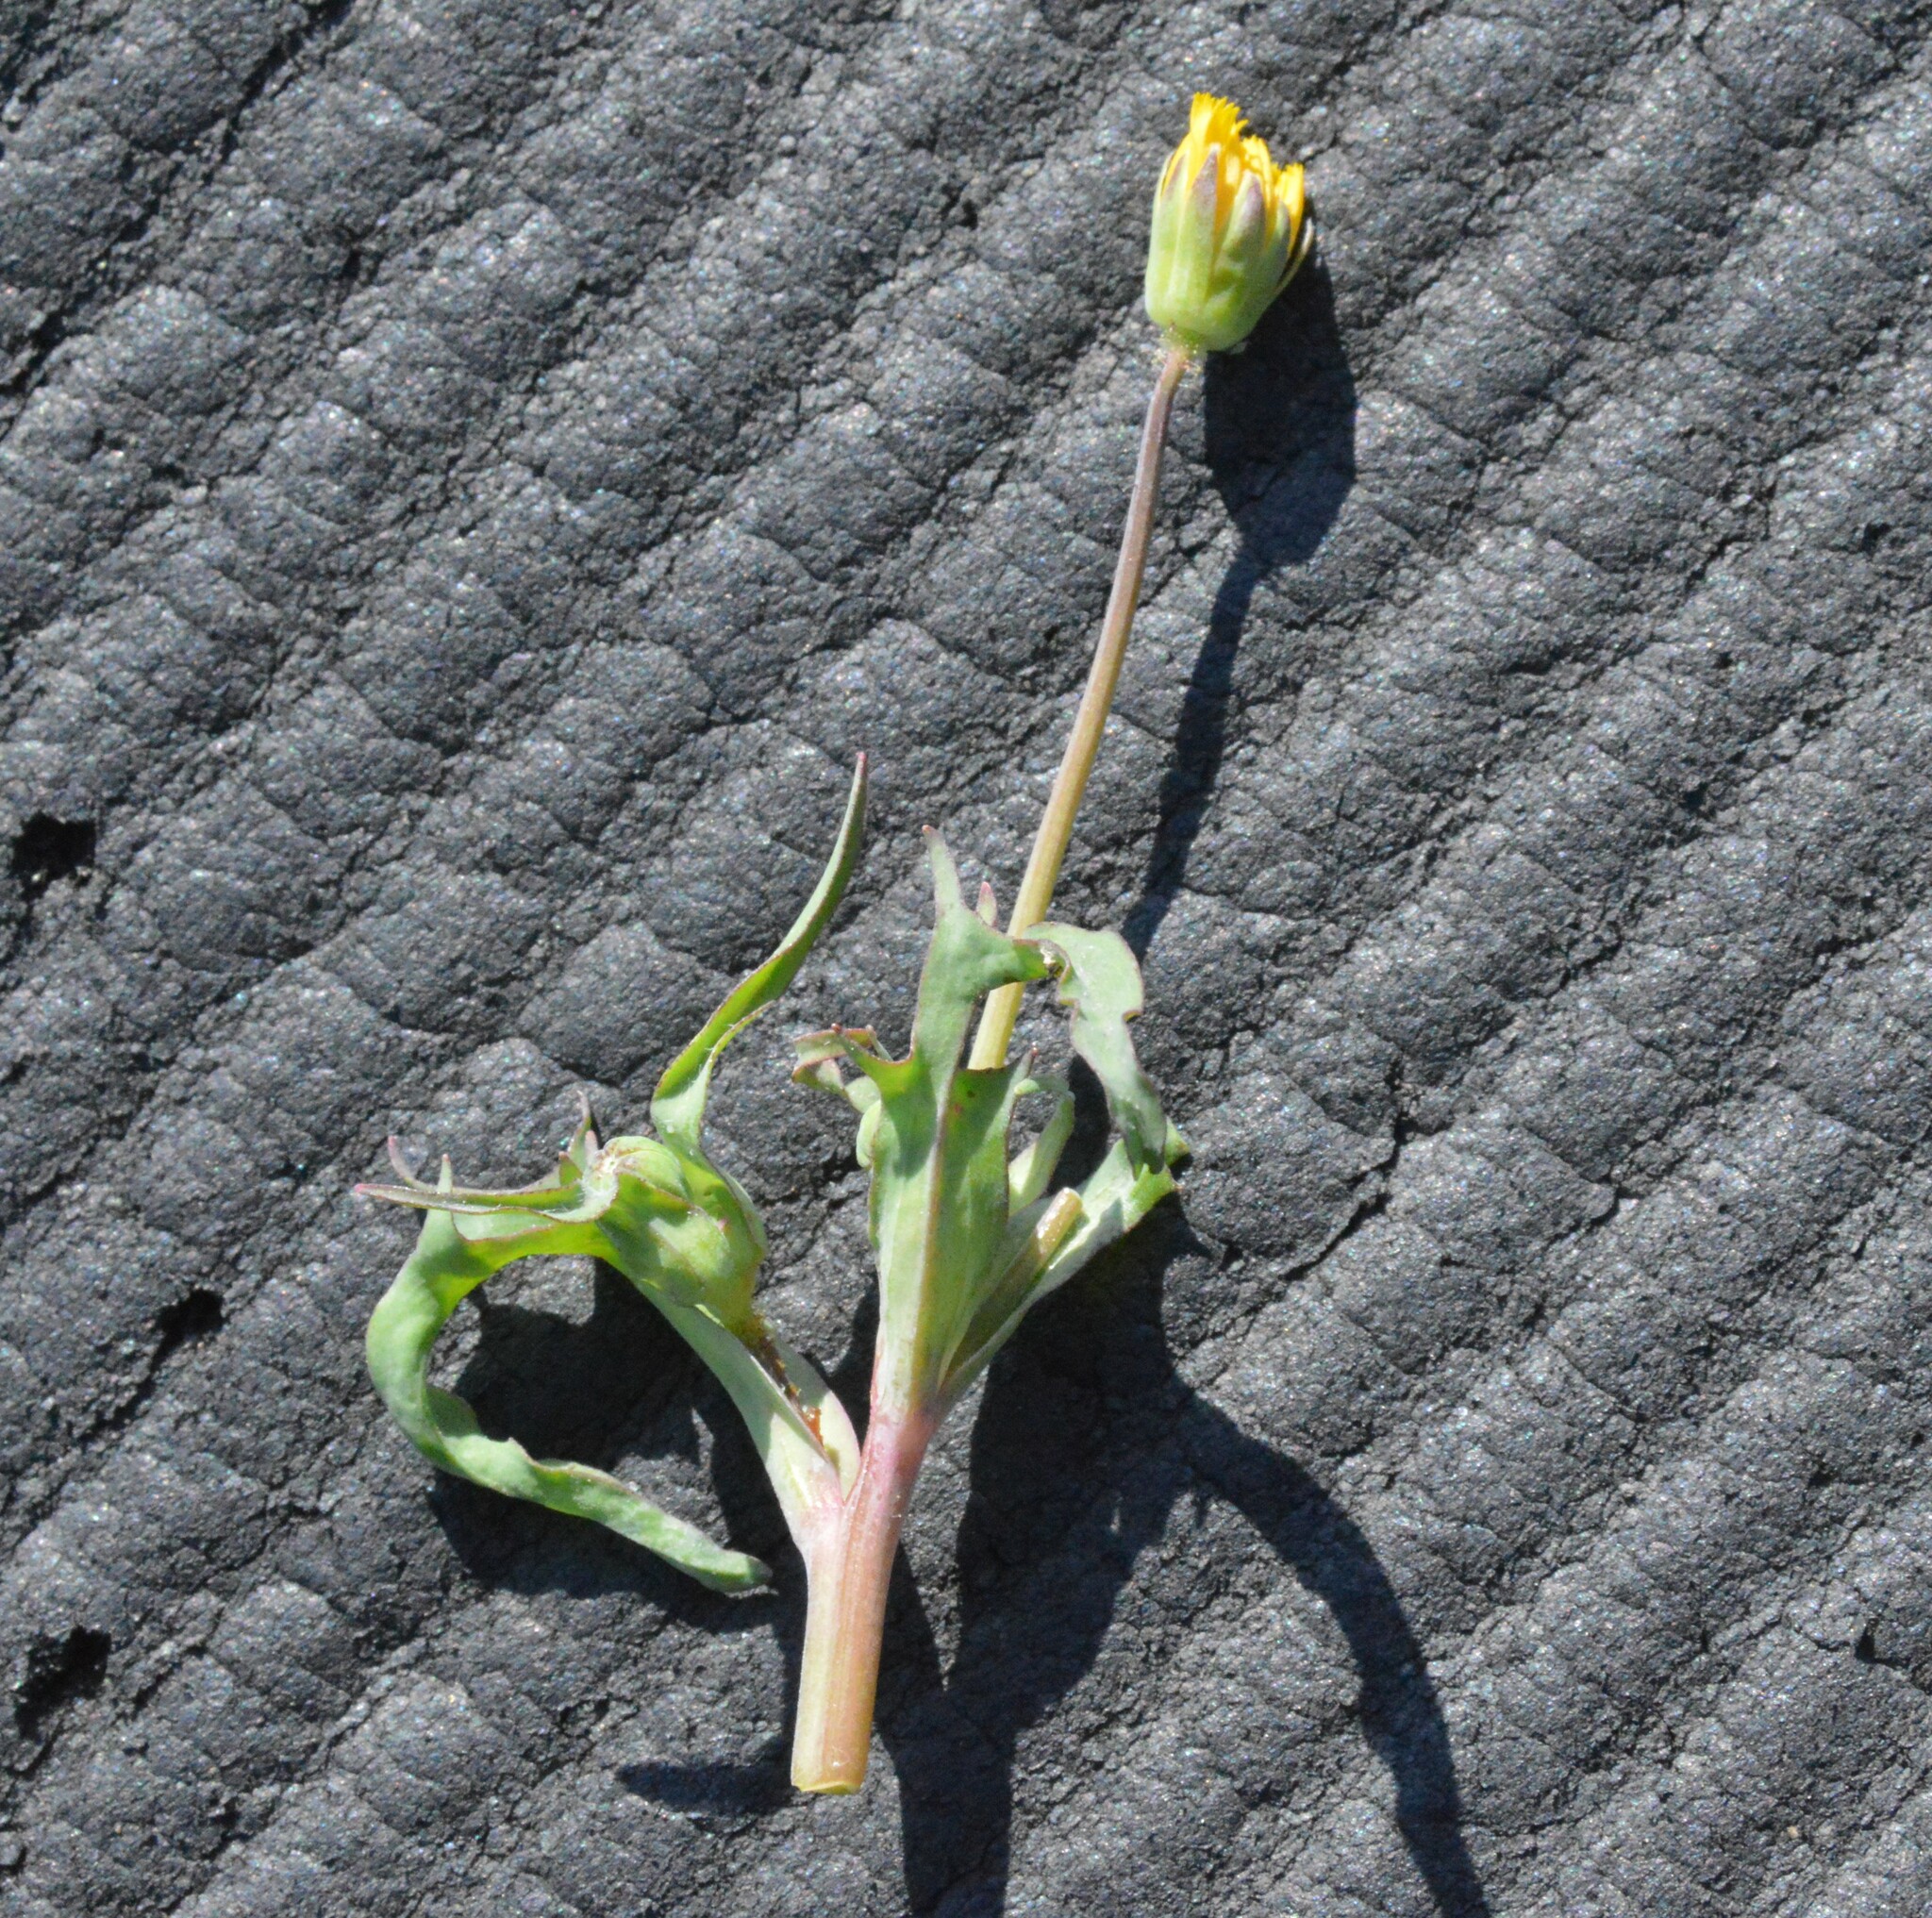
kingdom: Plantae
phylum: Tracheophyta
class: Magnoliopsida
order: Asterales
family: Asteraceae
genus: Krigia
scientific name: Krigia cespitosa
